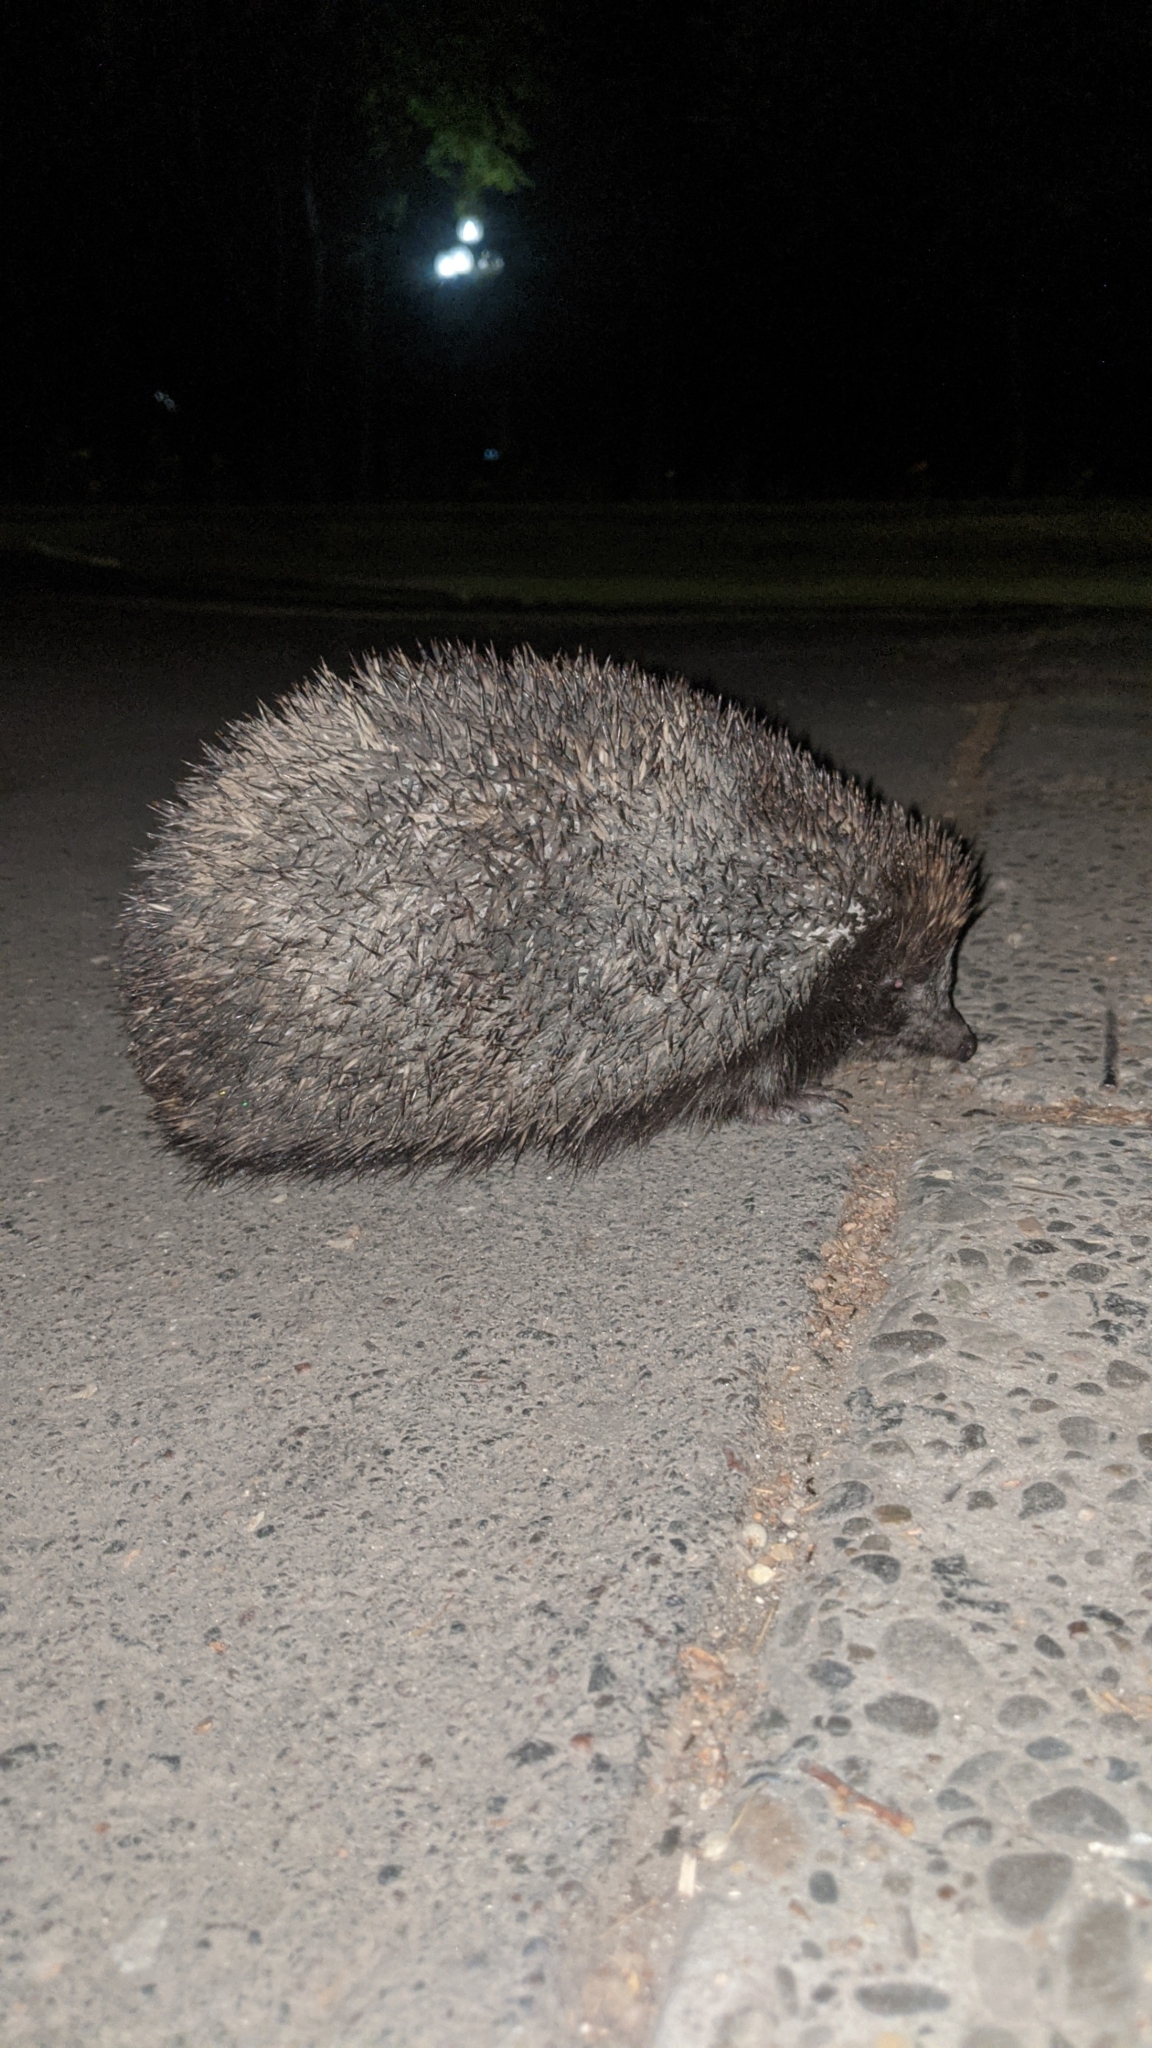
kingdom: Animalia
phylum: Chordata
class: Mammalia
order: Erinaceomorpha
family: Erinaceidae
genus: Erinaceus
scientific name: Erinaceus roumanicus
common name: Northern white-breasted hedgehog
